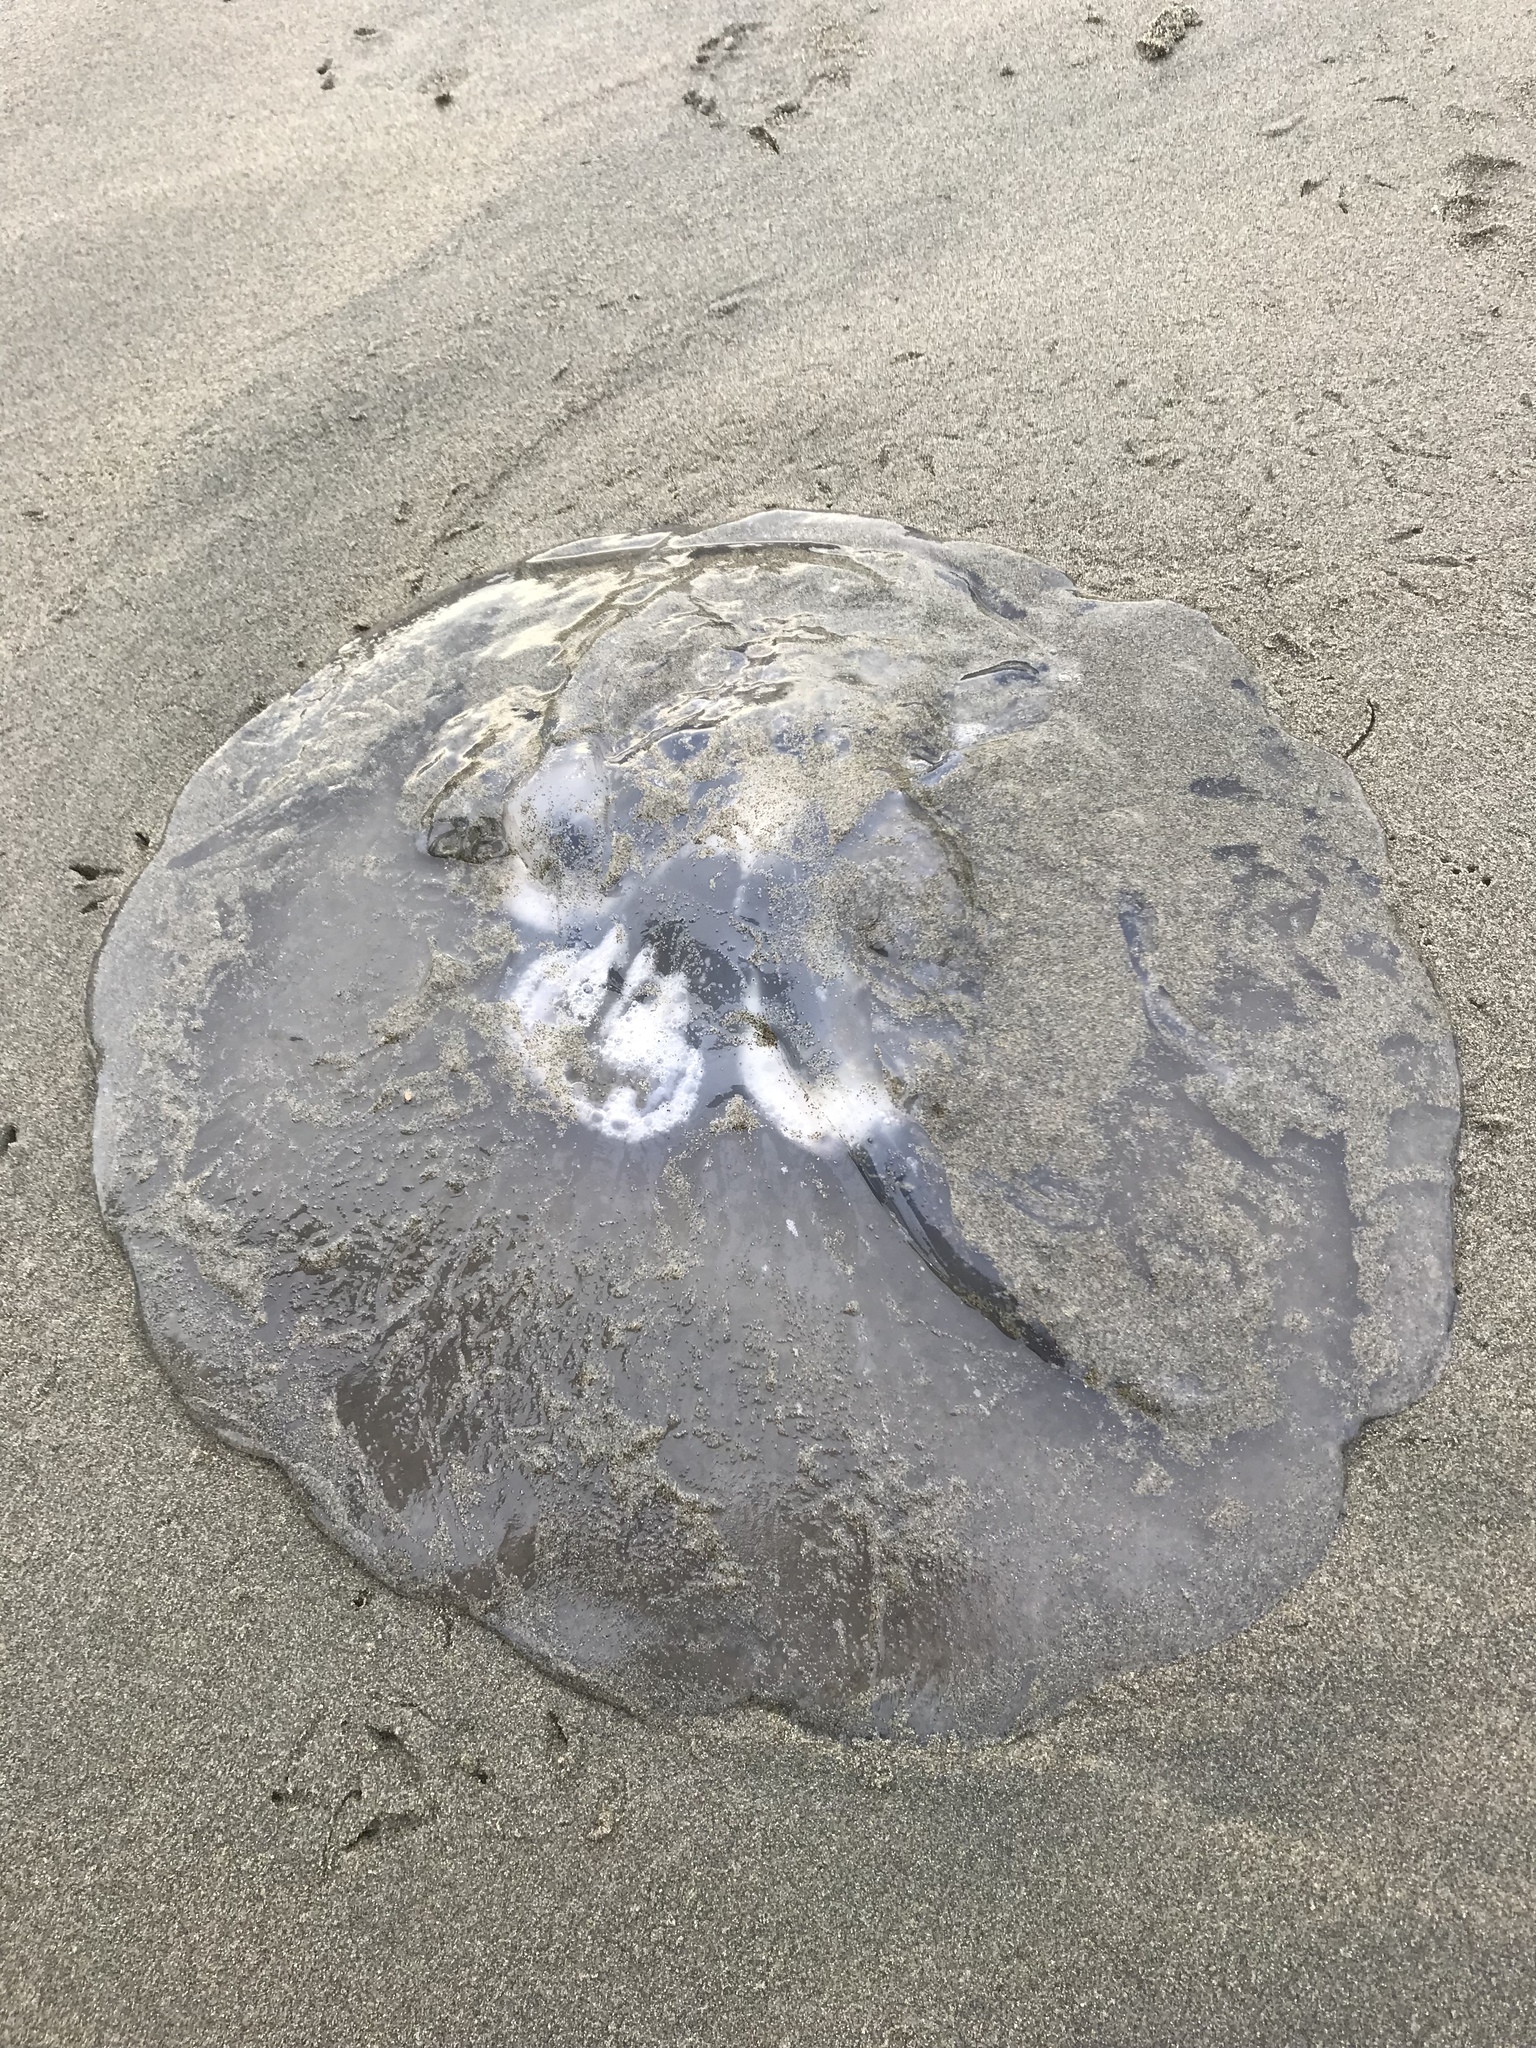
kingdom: Animalia
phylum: Cnidaria
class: Scyphozoa
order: Semaeostomeae
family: Ulmaridae
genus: Aurelia
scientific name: Aurelia labiata
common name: Pacific moon jelly
